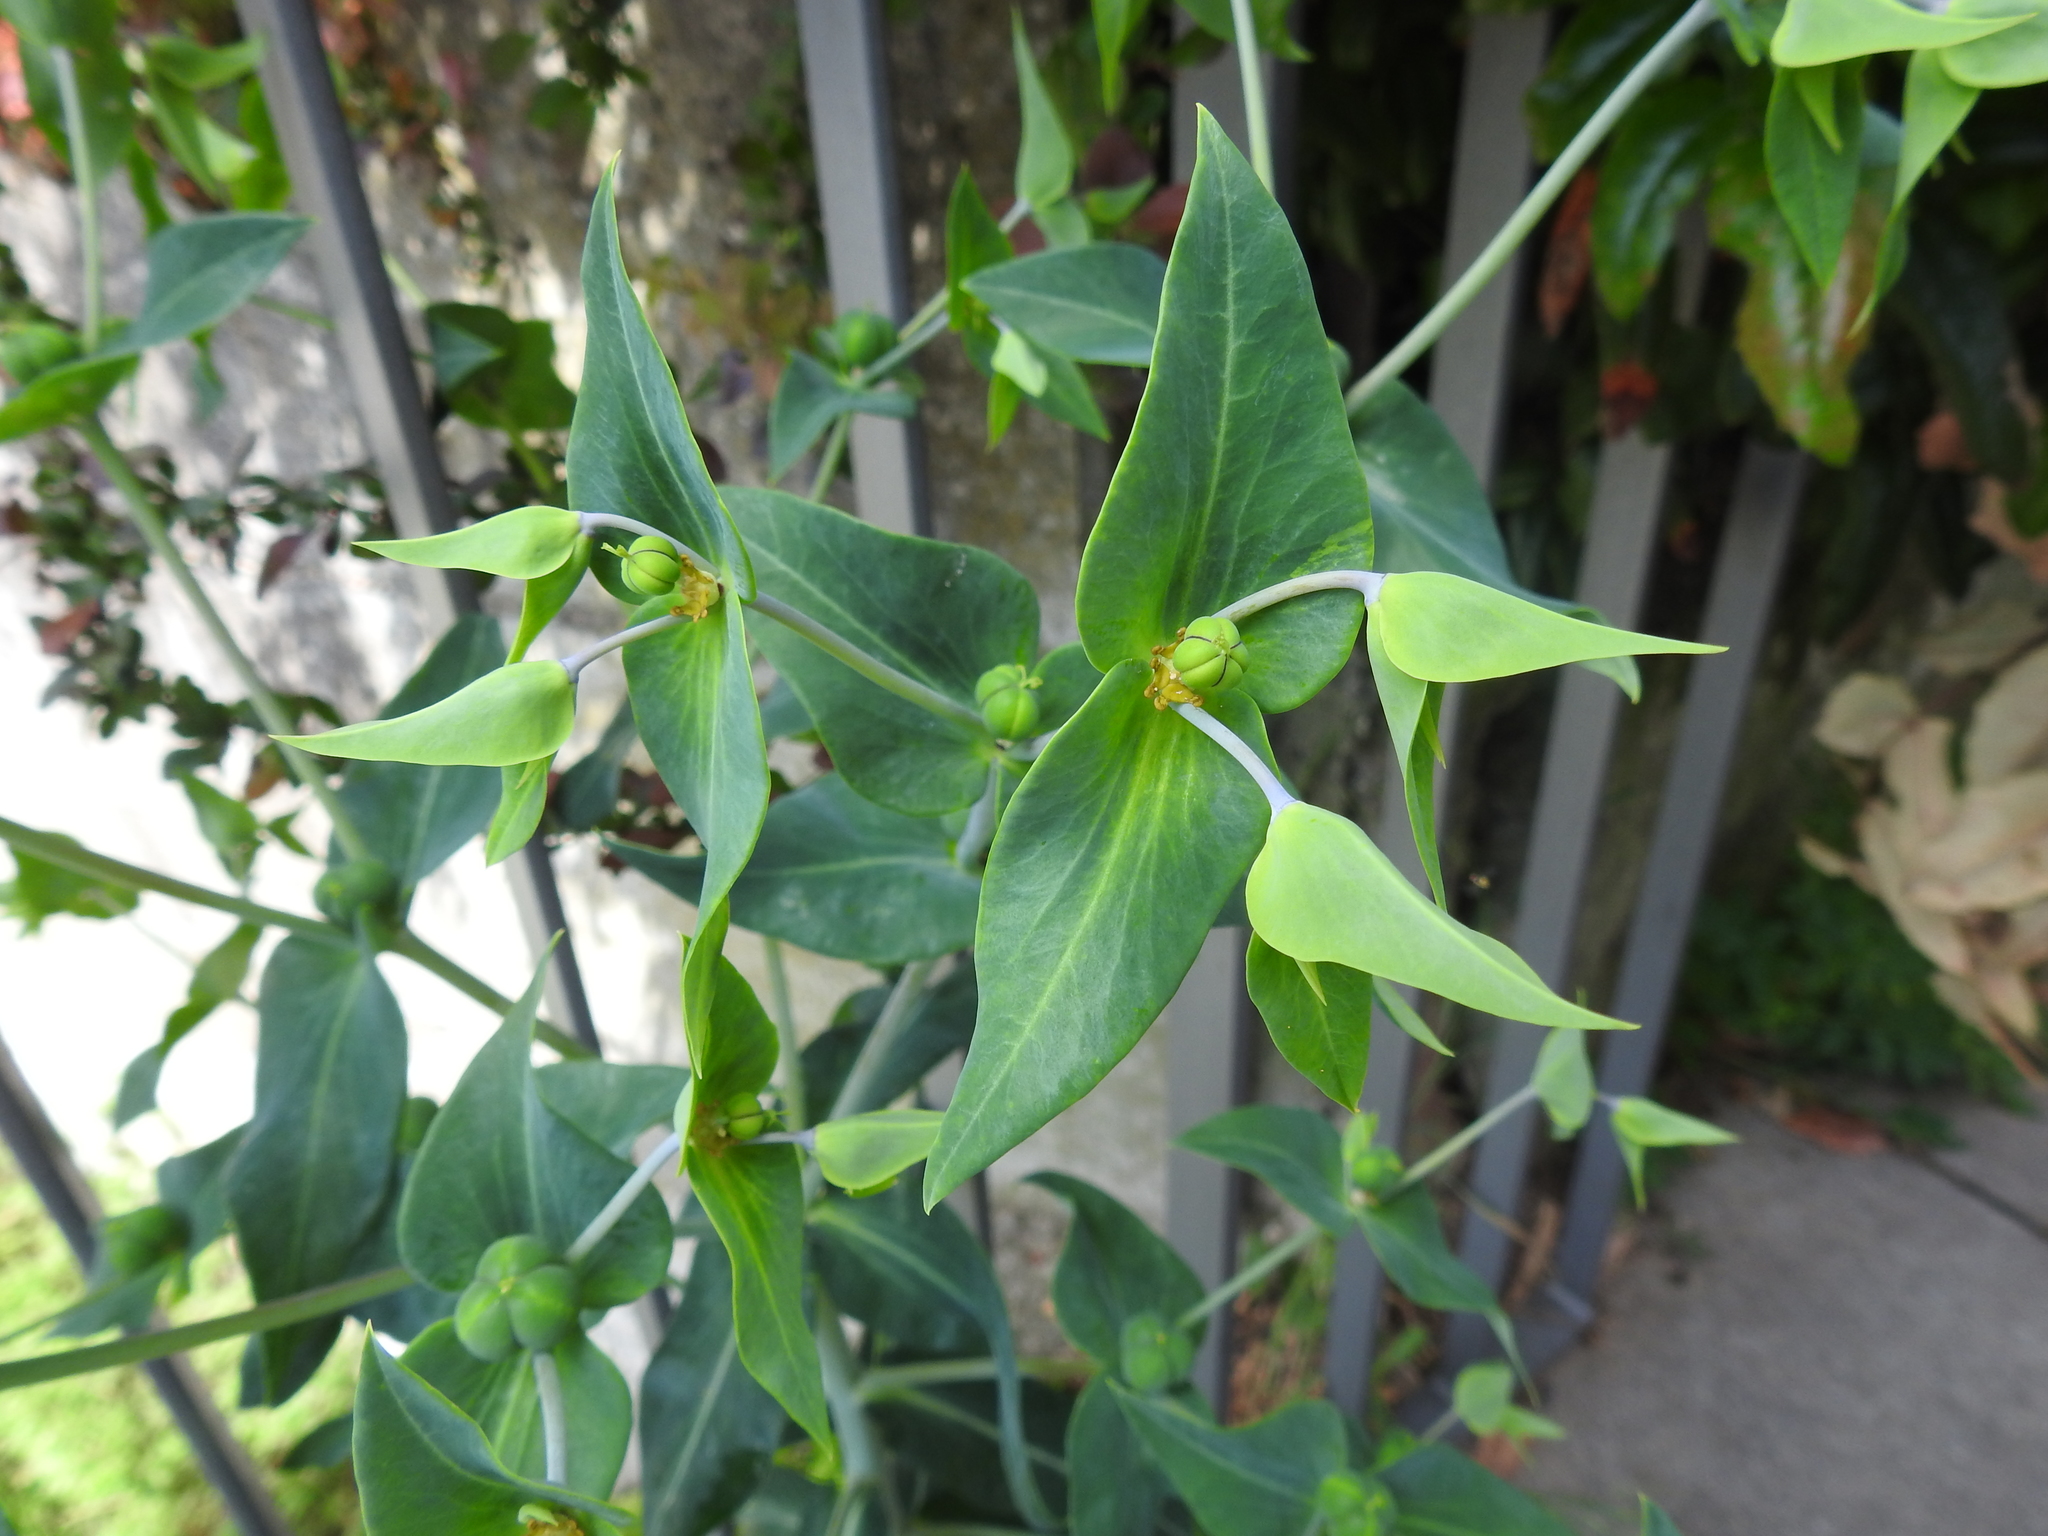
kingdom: Plantae
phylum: Tracheophyta
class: Magnoliopsida
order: Malpighiales
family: Euphorbiaceae
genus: Euphorbia
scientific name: Euphorbia lathyris
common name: Caper spurge
